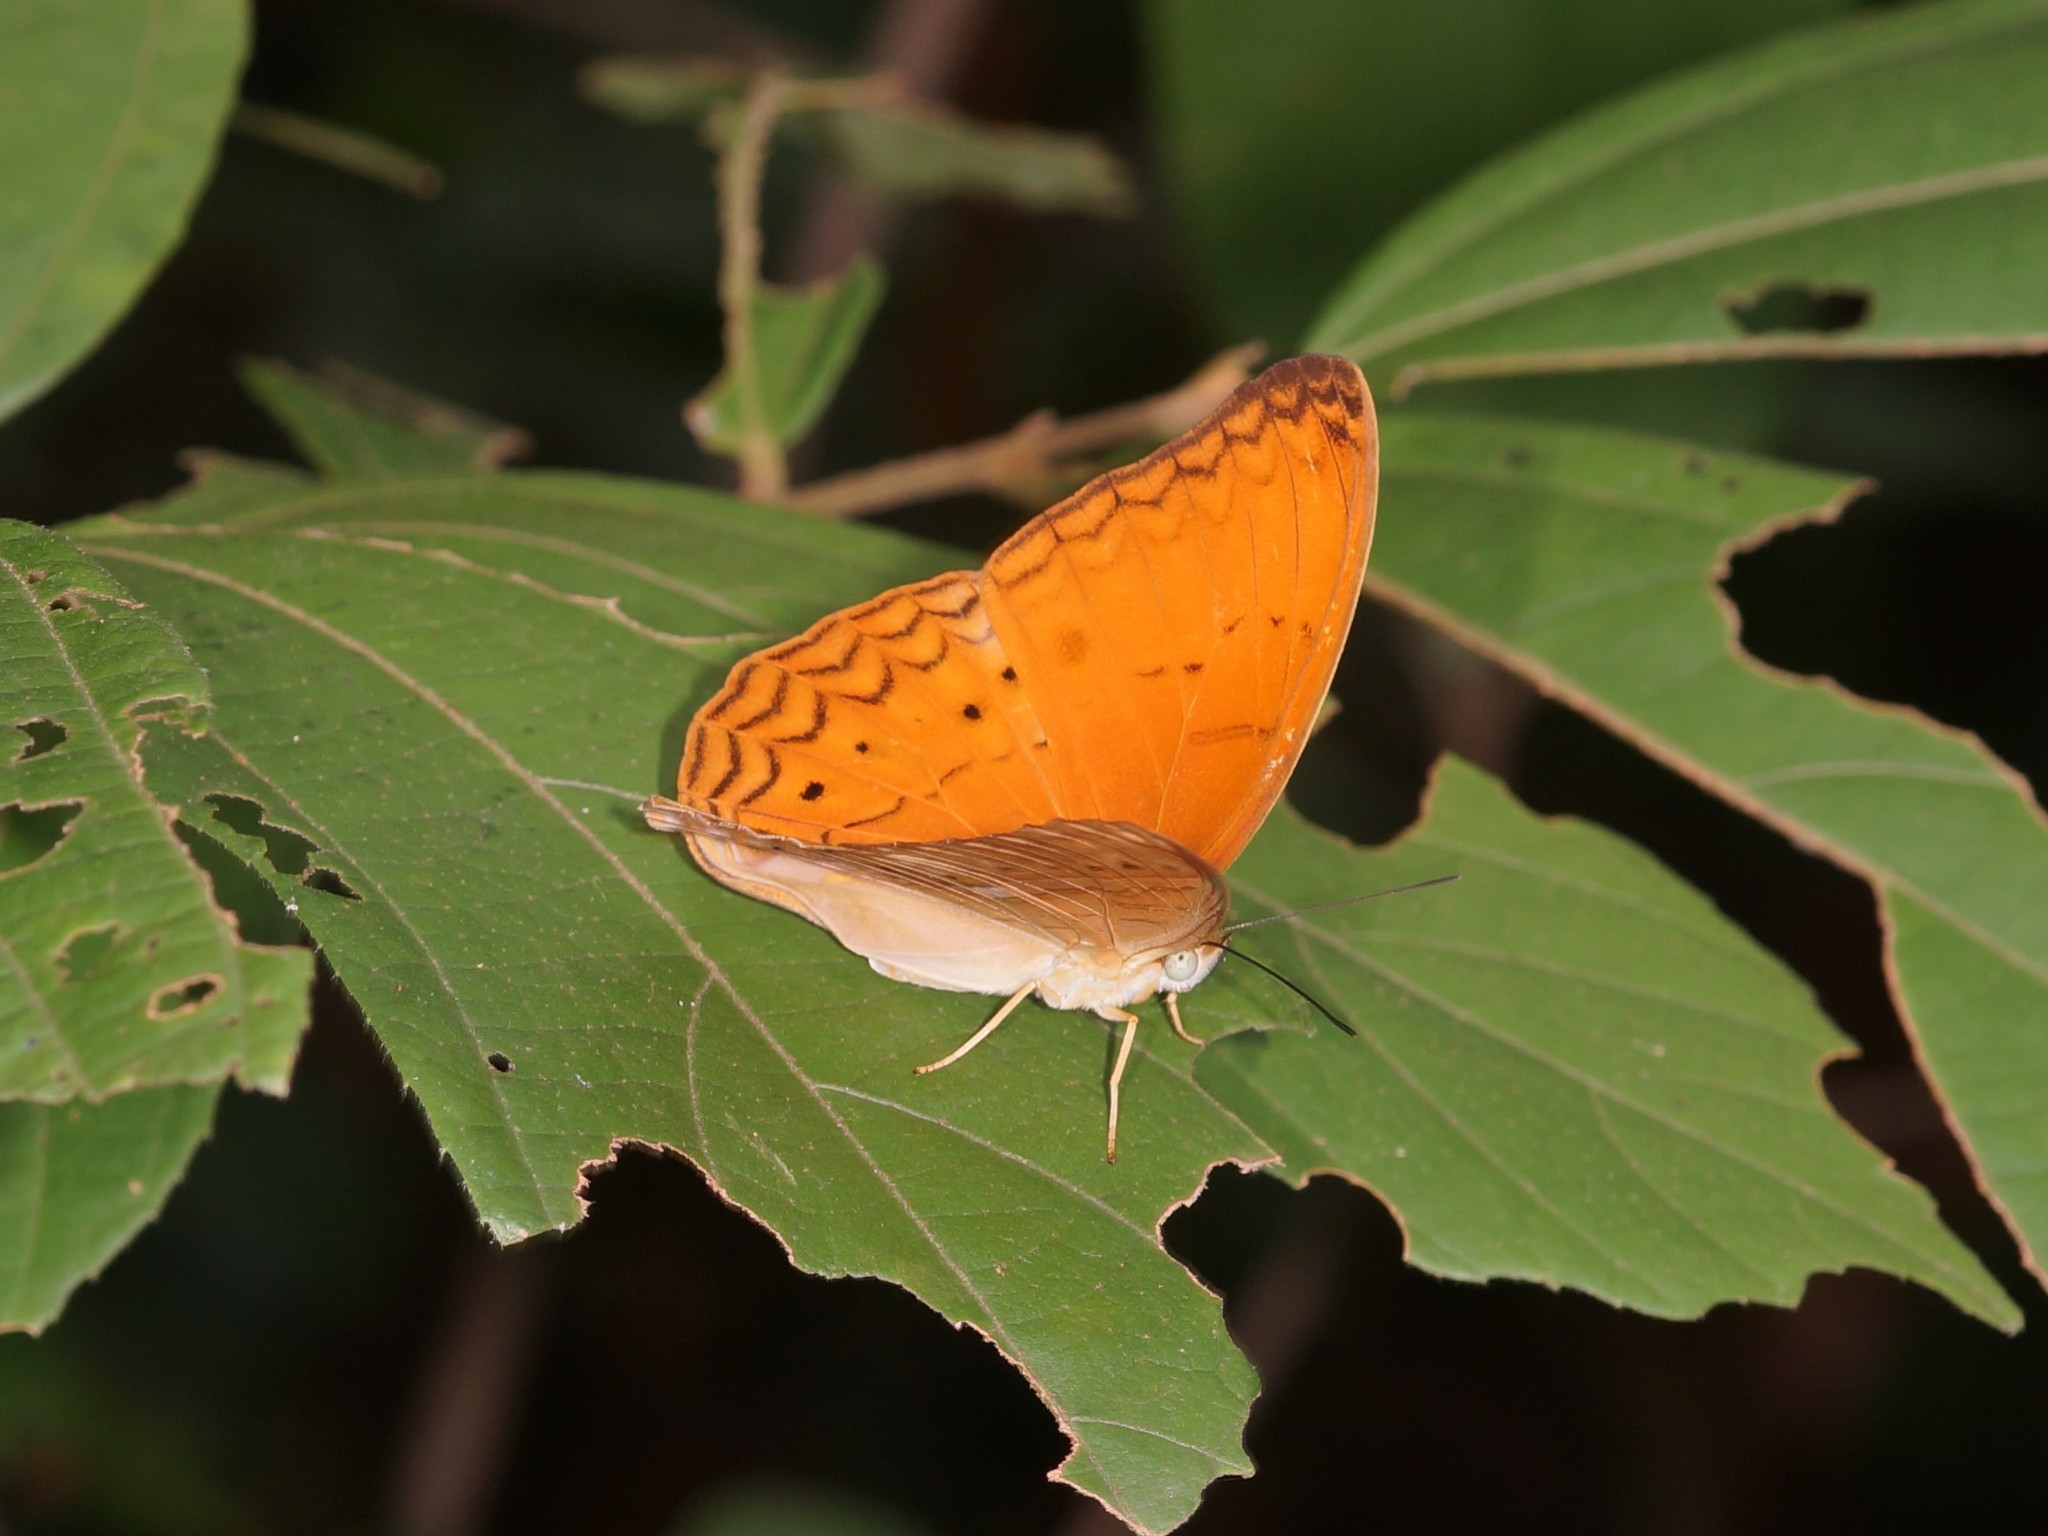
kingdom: Animalia
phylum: Arthropoda
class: Insecta
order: Lepidoptera
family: Nymphalidae
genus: Cirrochroa
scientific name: Cirrochroa tyche
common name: Common yeoman
